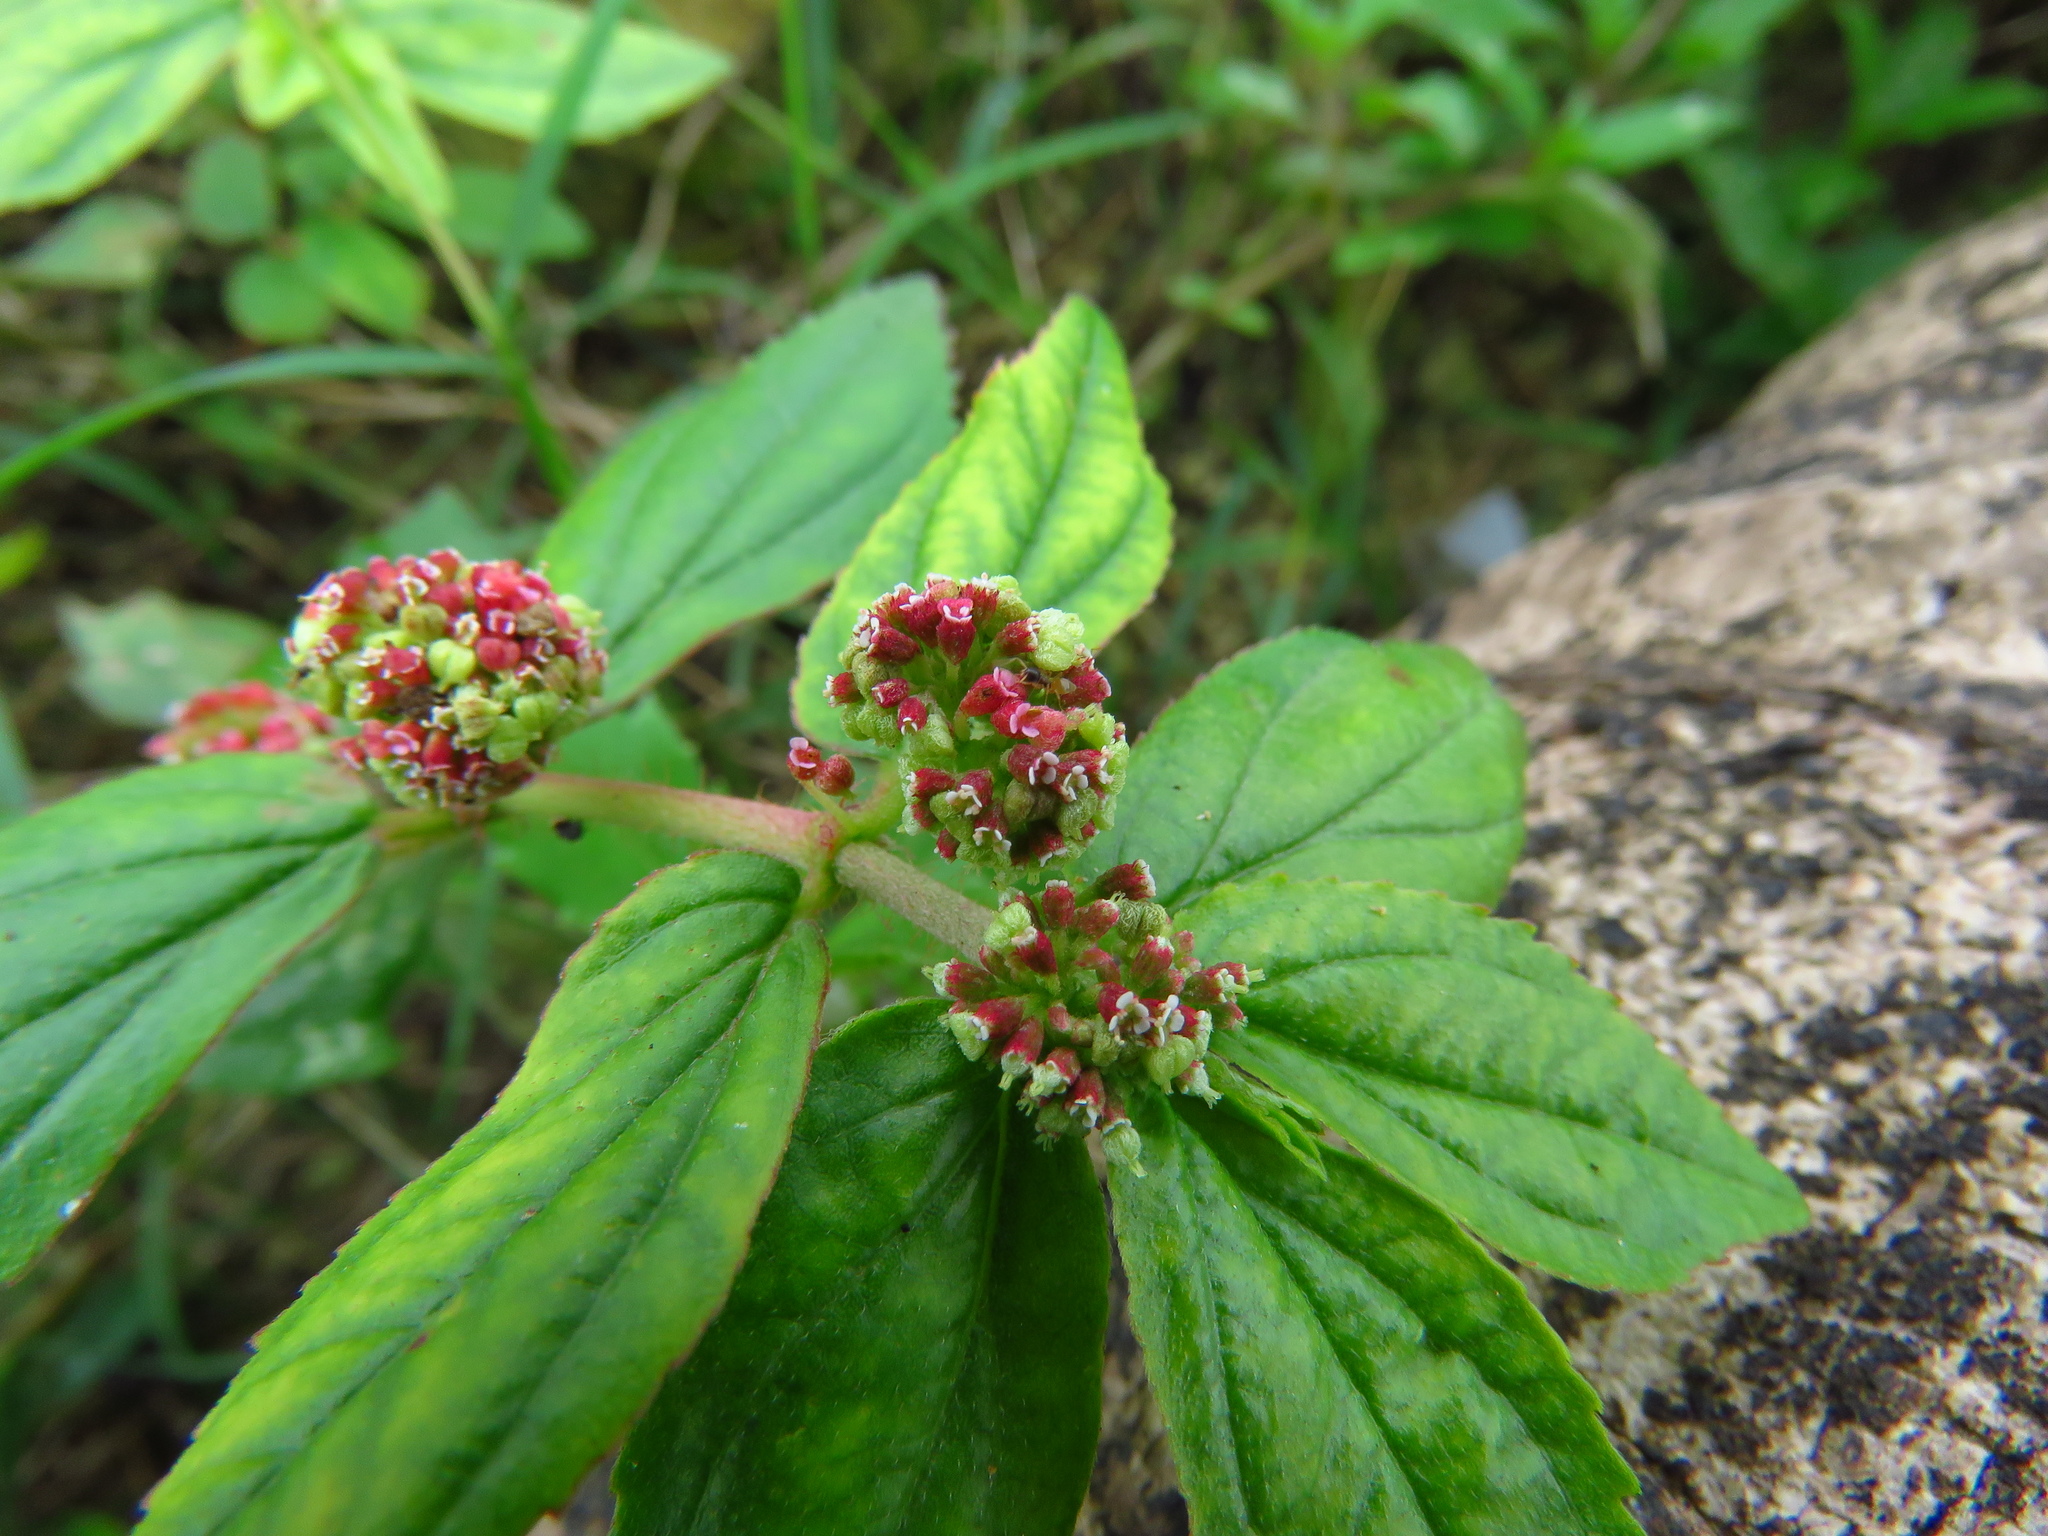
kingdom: Plantae
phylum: Tracheophyta
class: Magnoliopsida
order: Malpighiales
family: Euphorbiaceae
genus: Euphorbia
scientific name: Euphorbia hirta
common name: Pillpod sandmat
